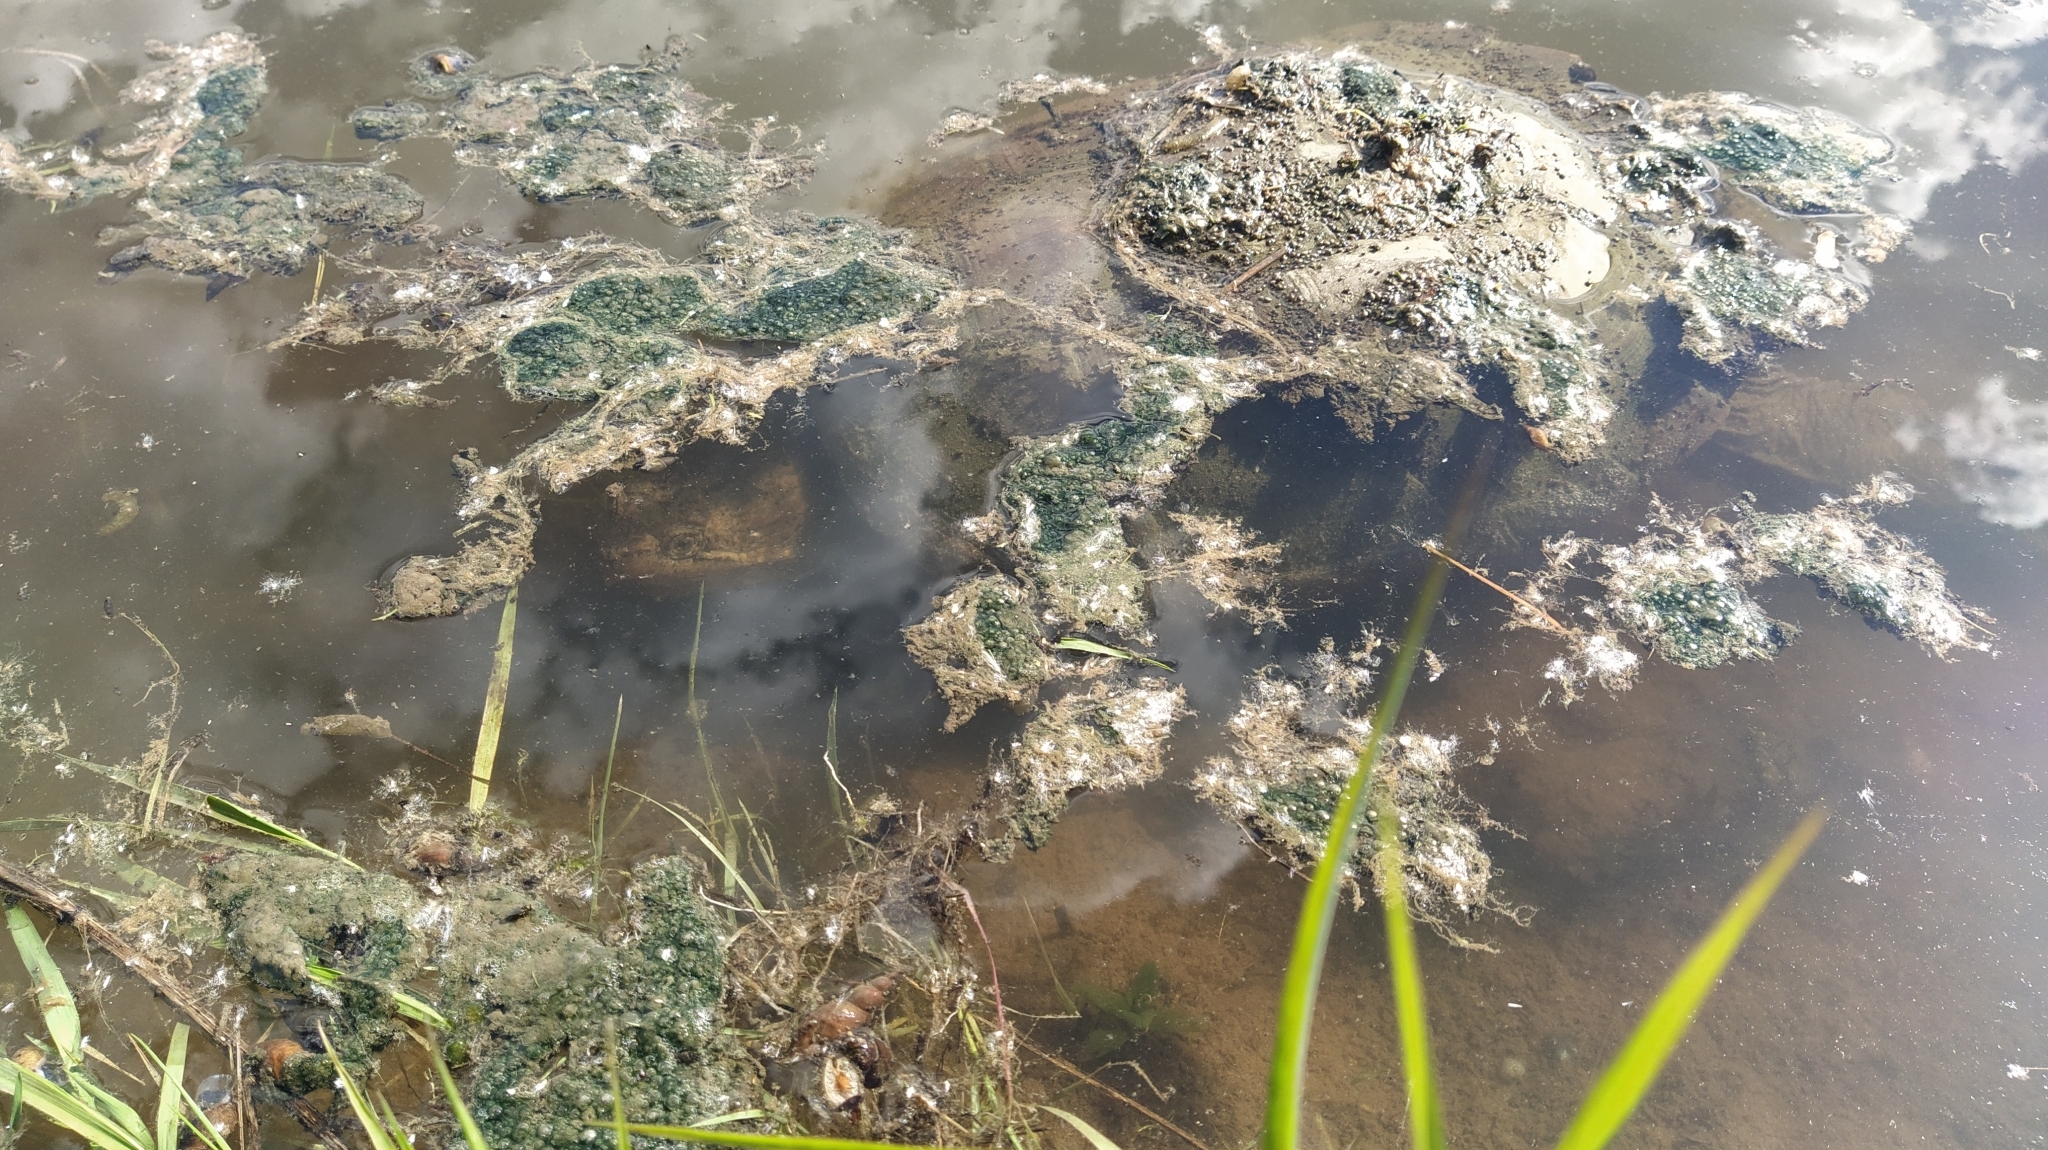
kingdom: Animalia
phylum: Chordata
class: Testudines
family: Chelydridae
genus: Chelydra
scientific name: Chelydra serpentina
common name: Common snapping turtle
